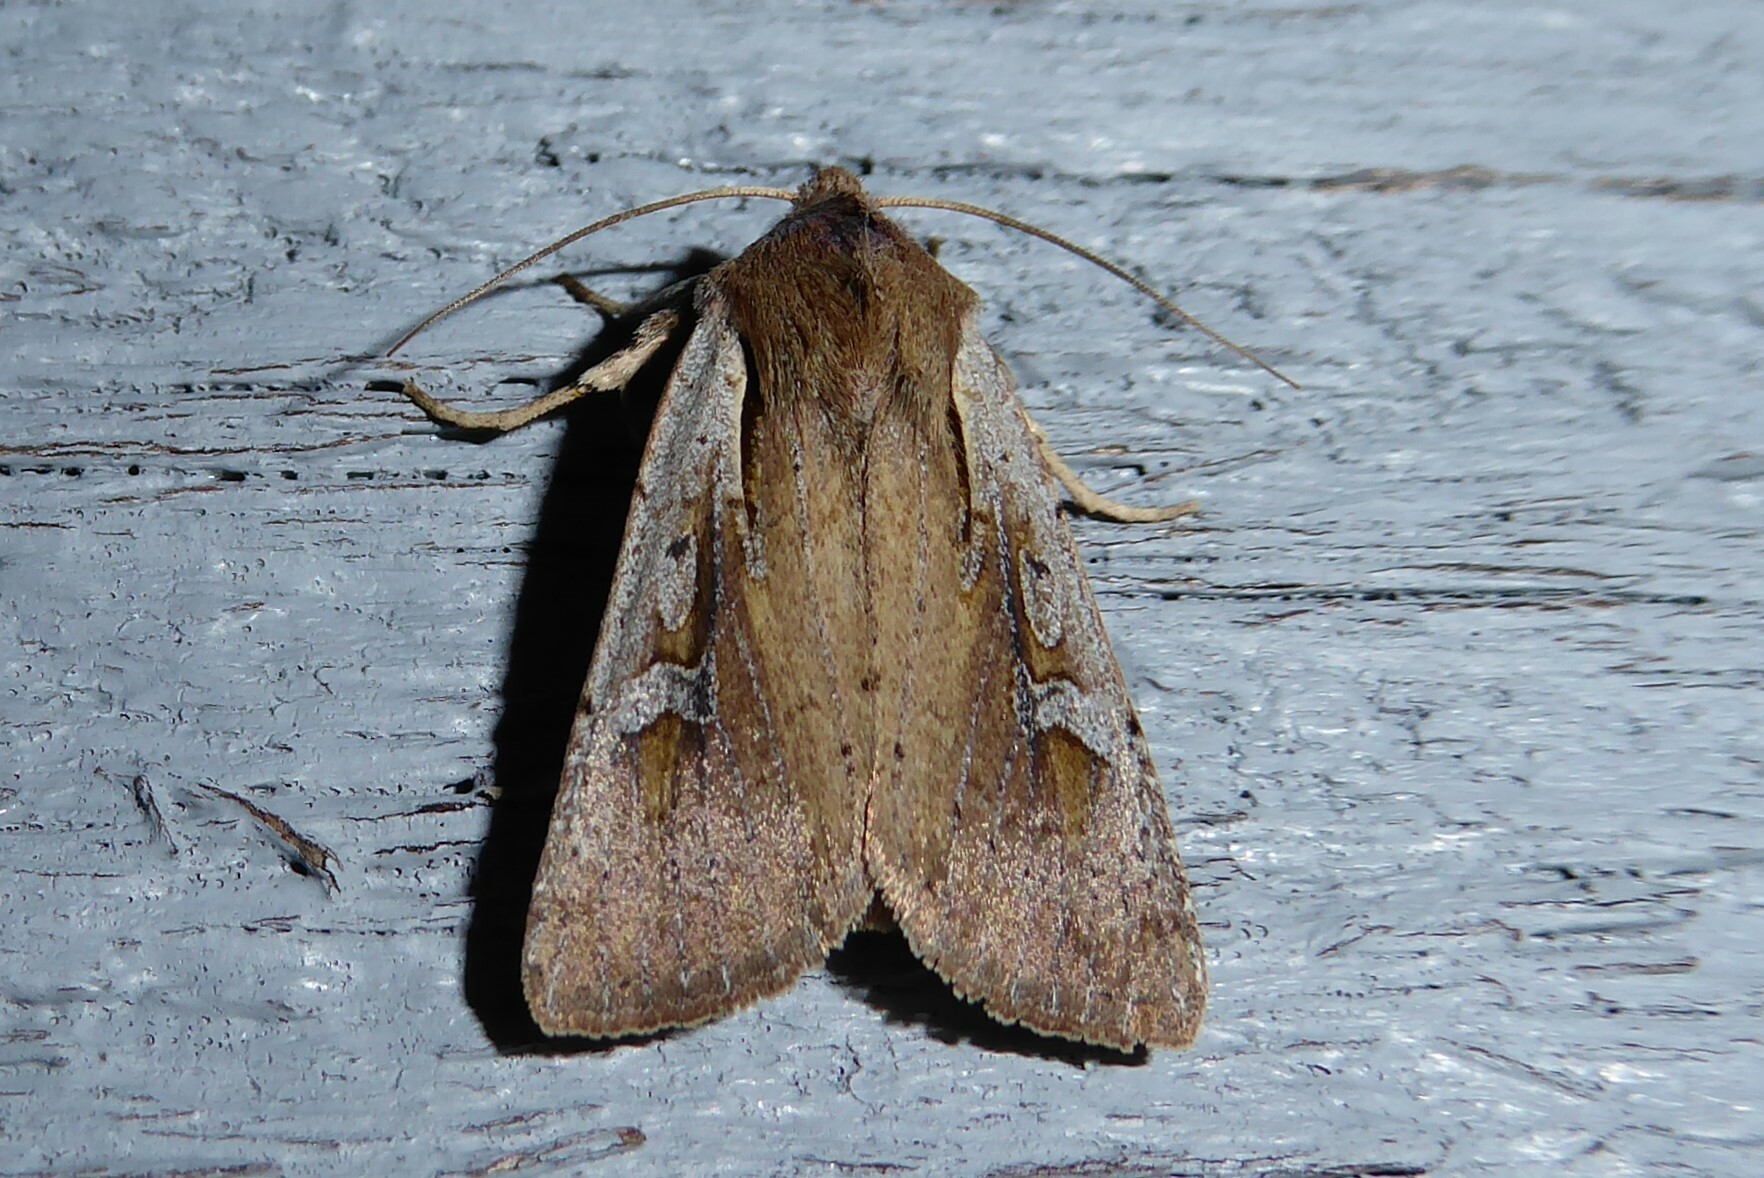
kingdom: Animalia
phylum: Arthropoda
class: Insecta
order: Lepidoptera
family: Noctuidae
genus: Ichneutica
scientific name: Ichneutica atristriga
